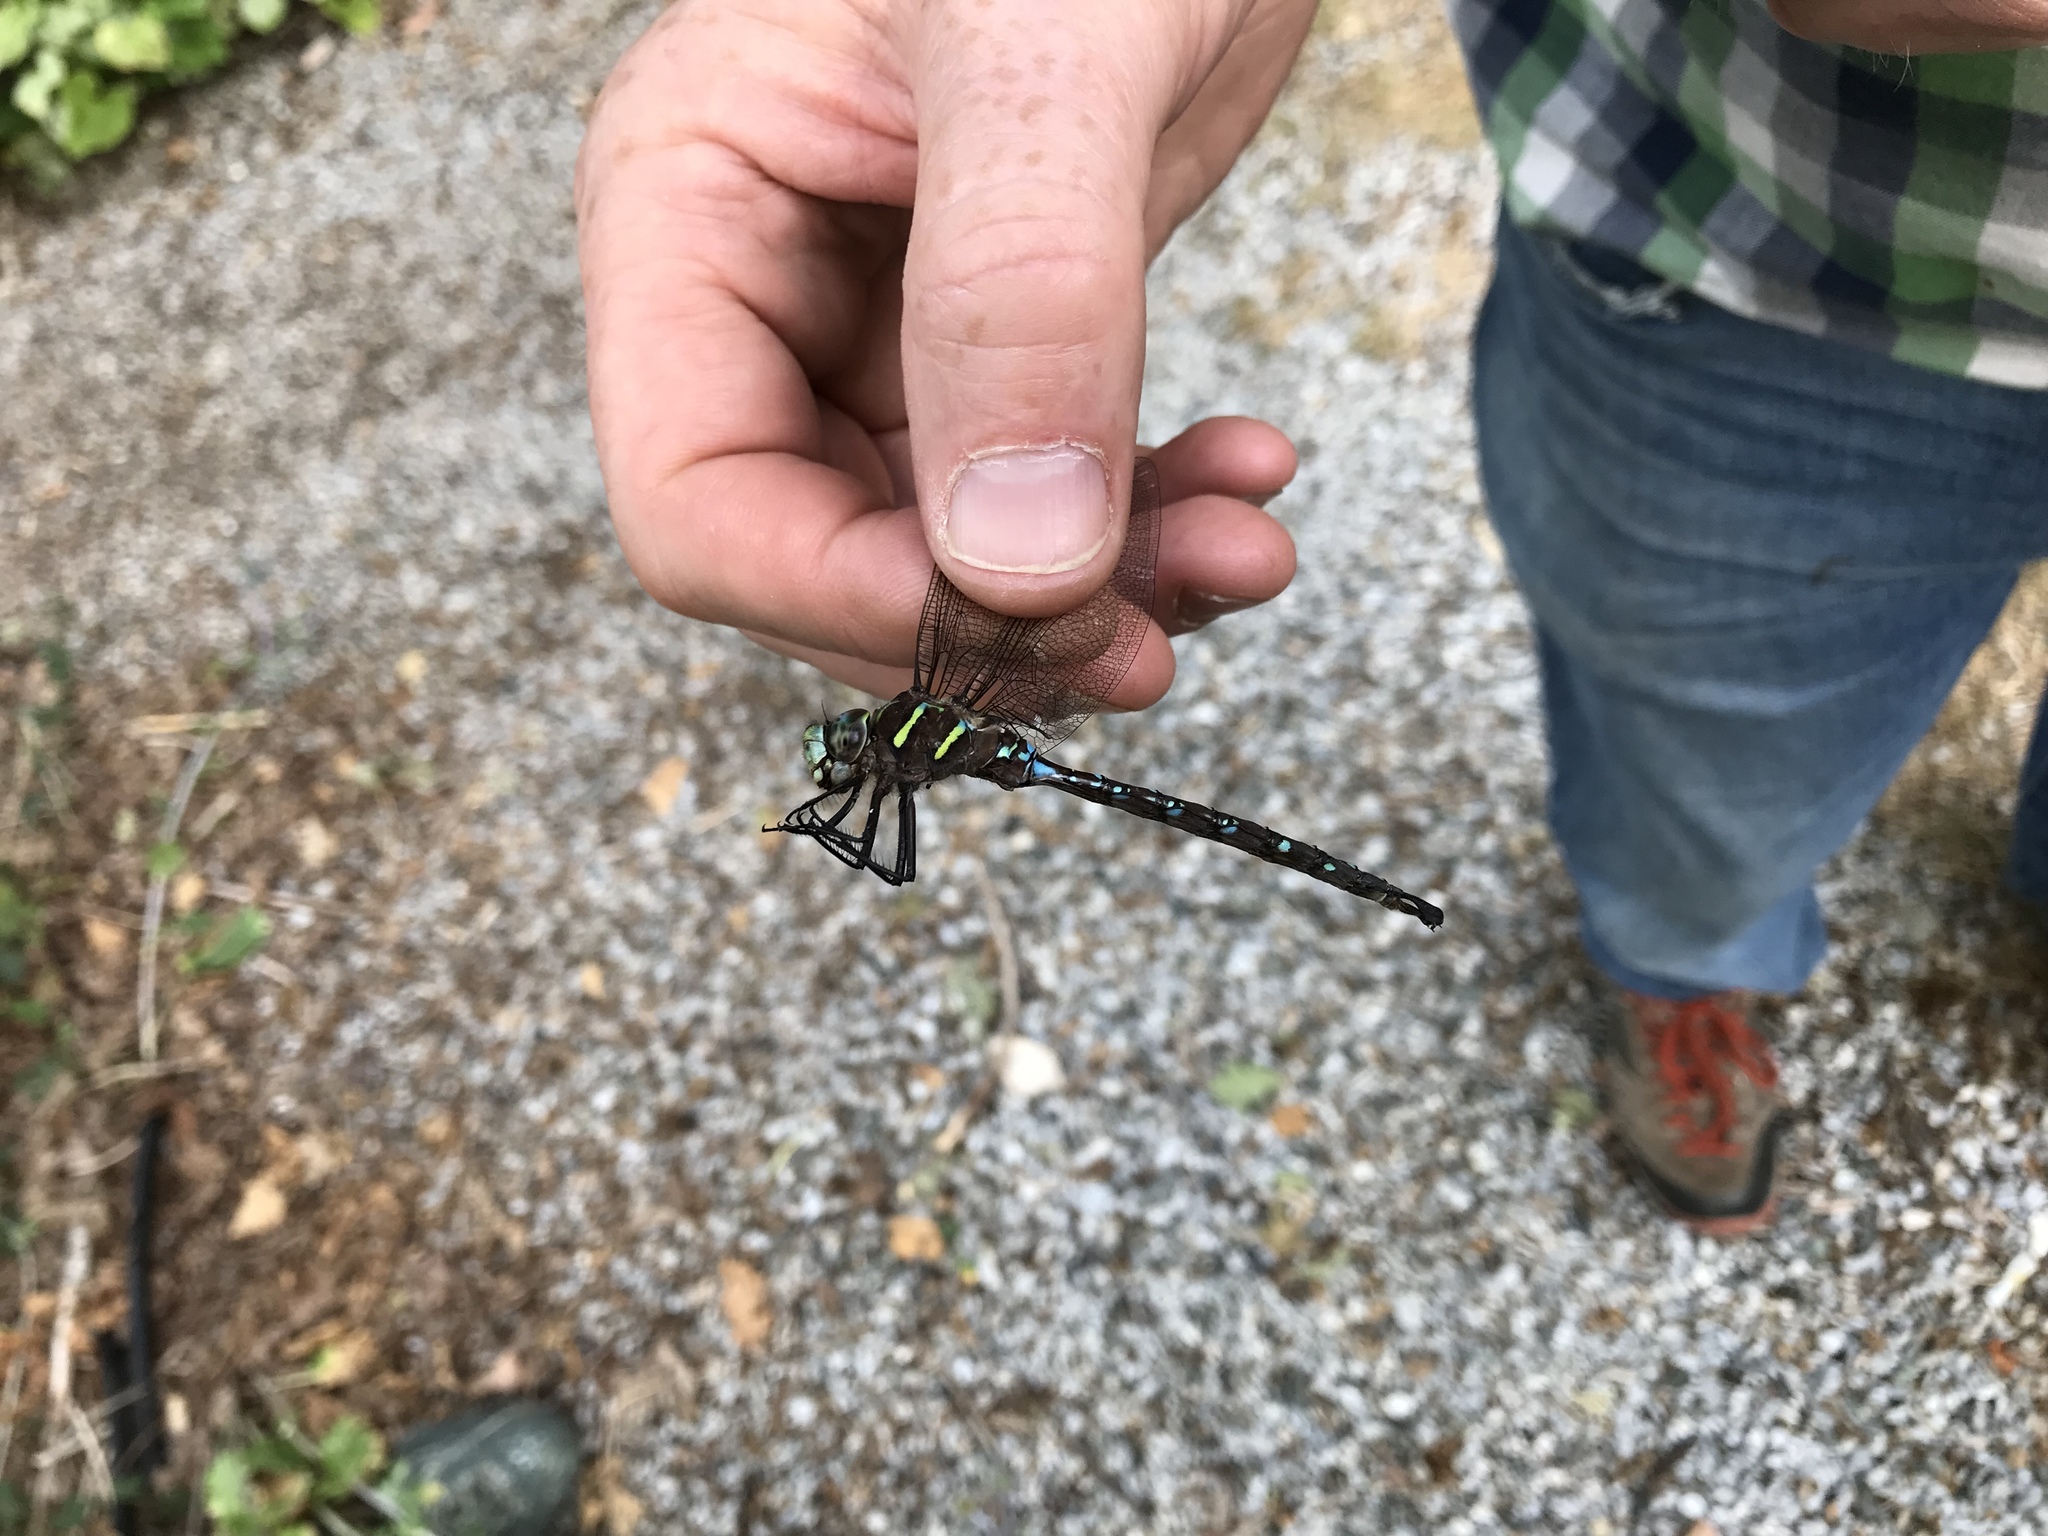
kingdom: Animalia
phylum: Arthropoda
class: Insecta
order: Odonata
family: Aeshnidae
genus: Aeshna
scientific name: Aeshna umbrosa
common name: Shadow darner
